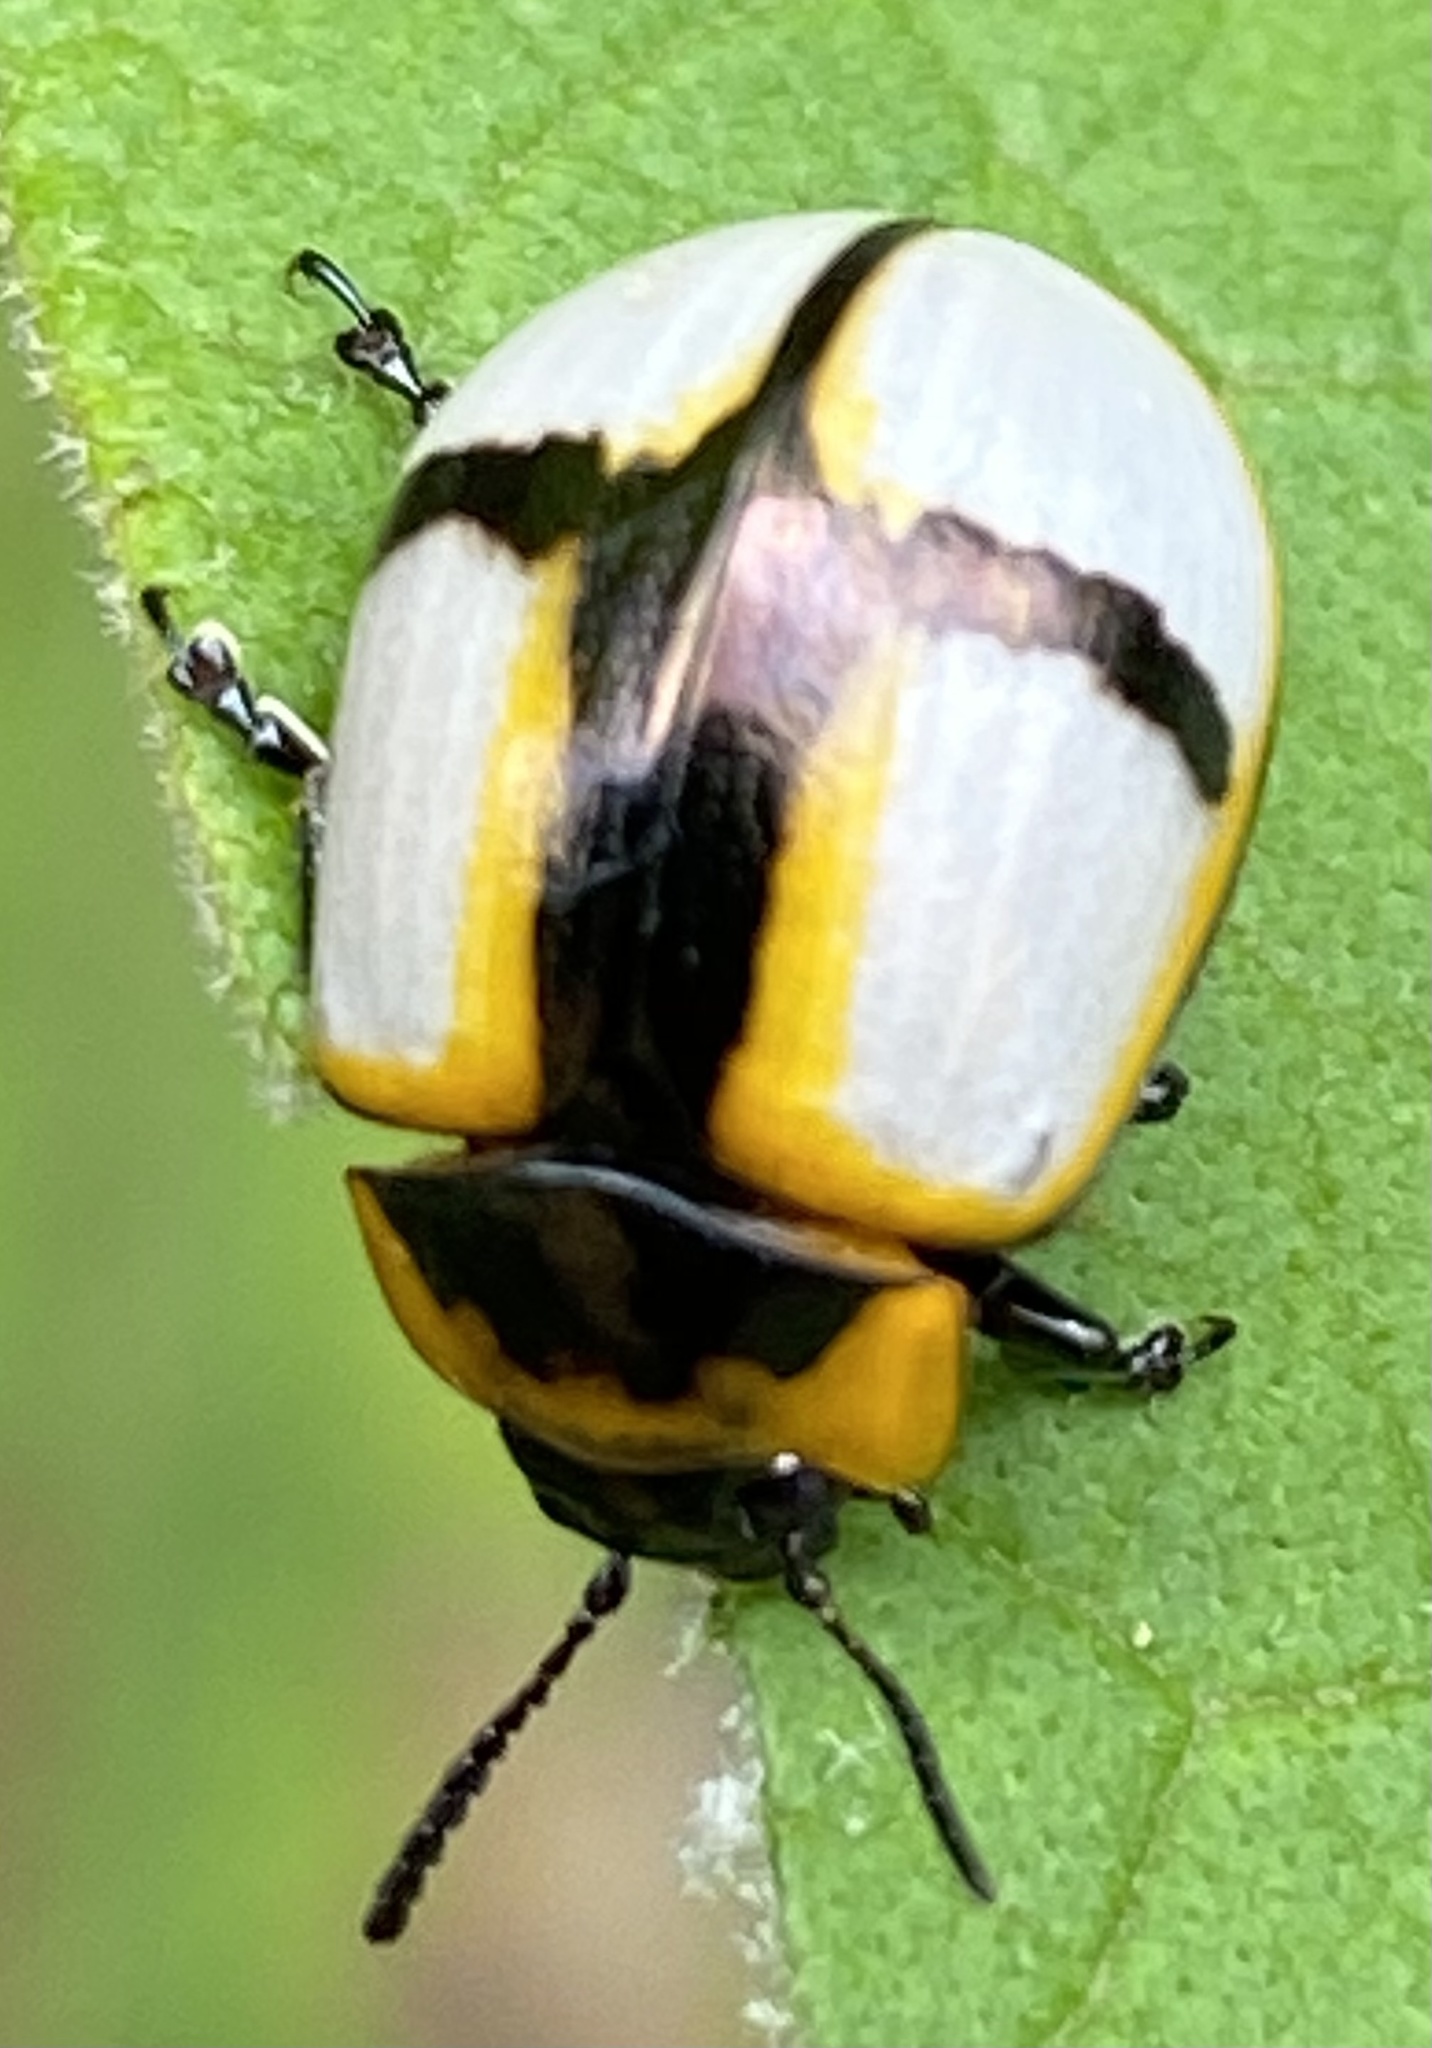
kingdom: Animalia
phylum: Arthropoda
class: Insecta
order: Coleoptera
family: Chrysomelidae
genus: Platyphora
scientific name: Platyphora
